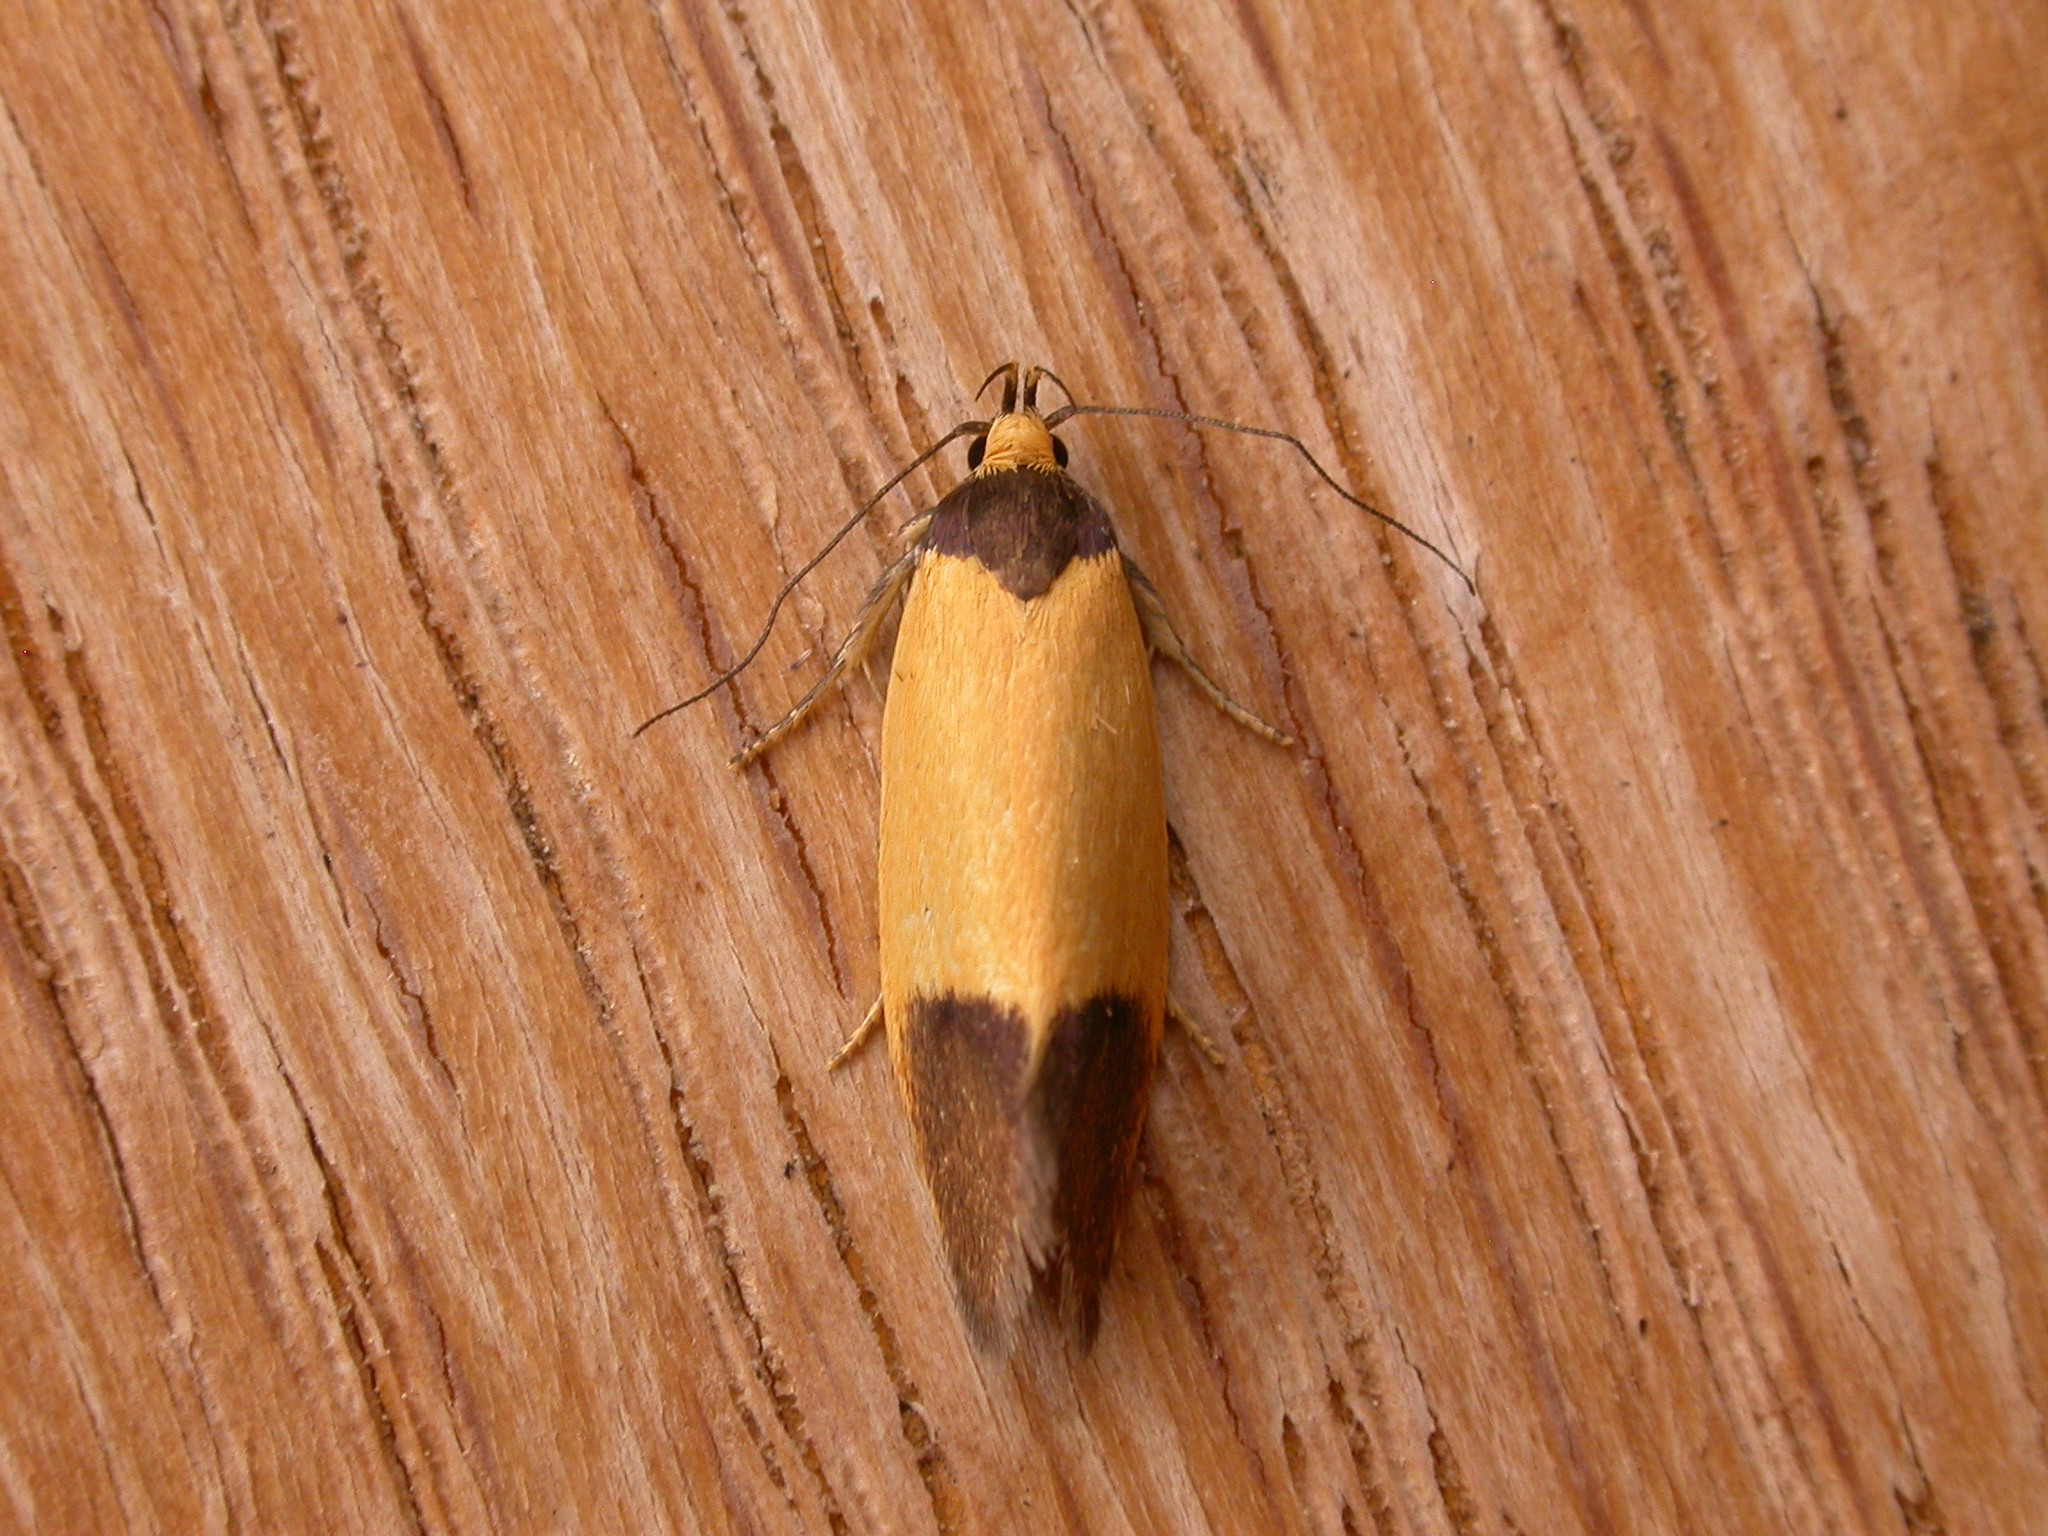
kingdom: Animalia
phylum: Arthropoda
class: Insecta
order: Lepidoptera
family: Oecophoridae
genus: Merocroca
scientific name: Merocroca automima
